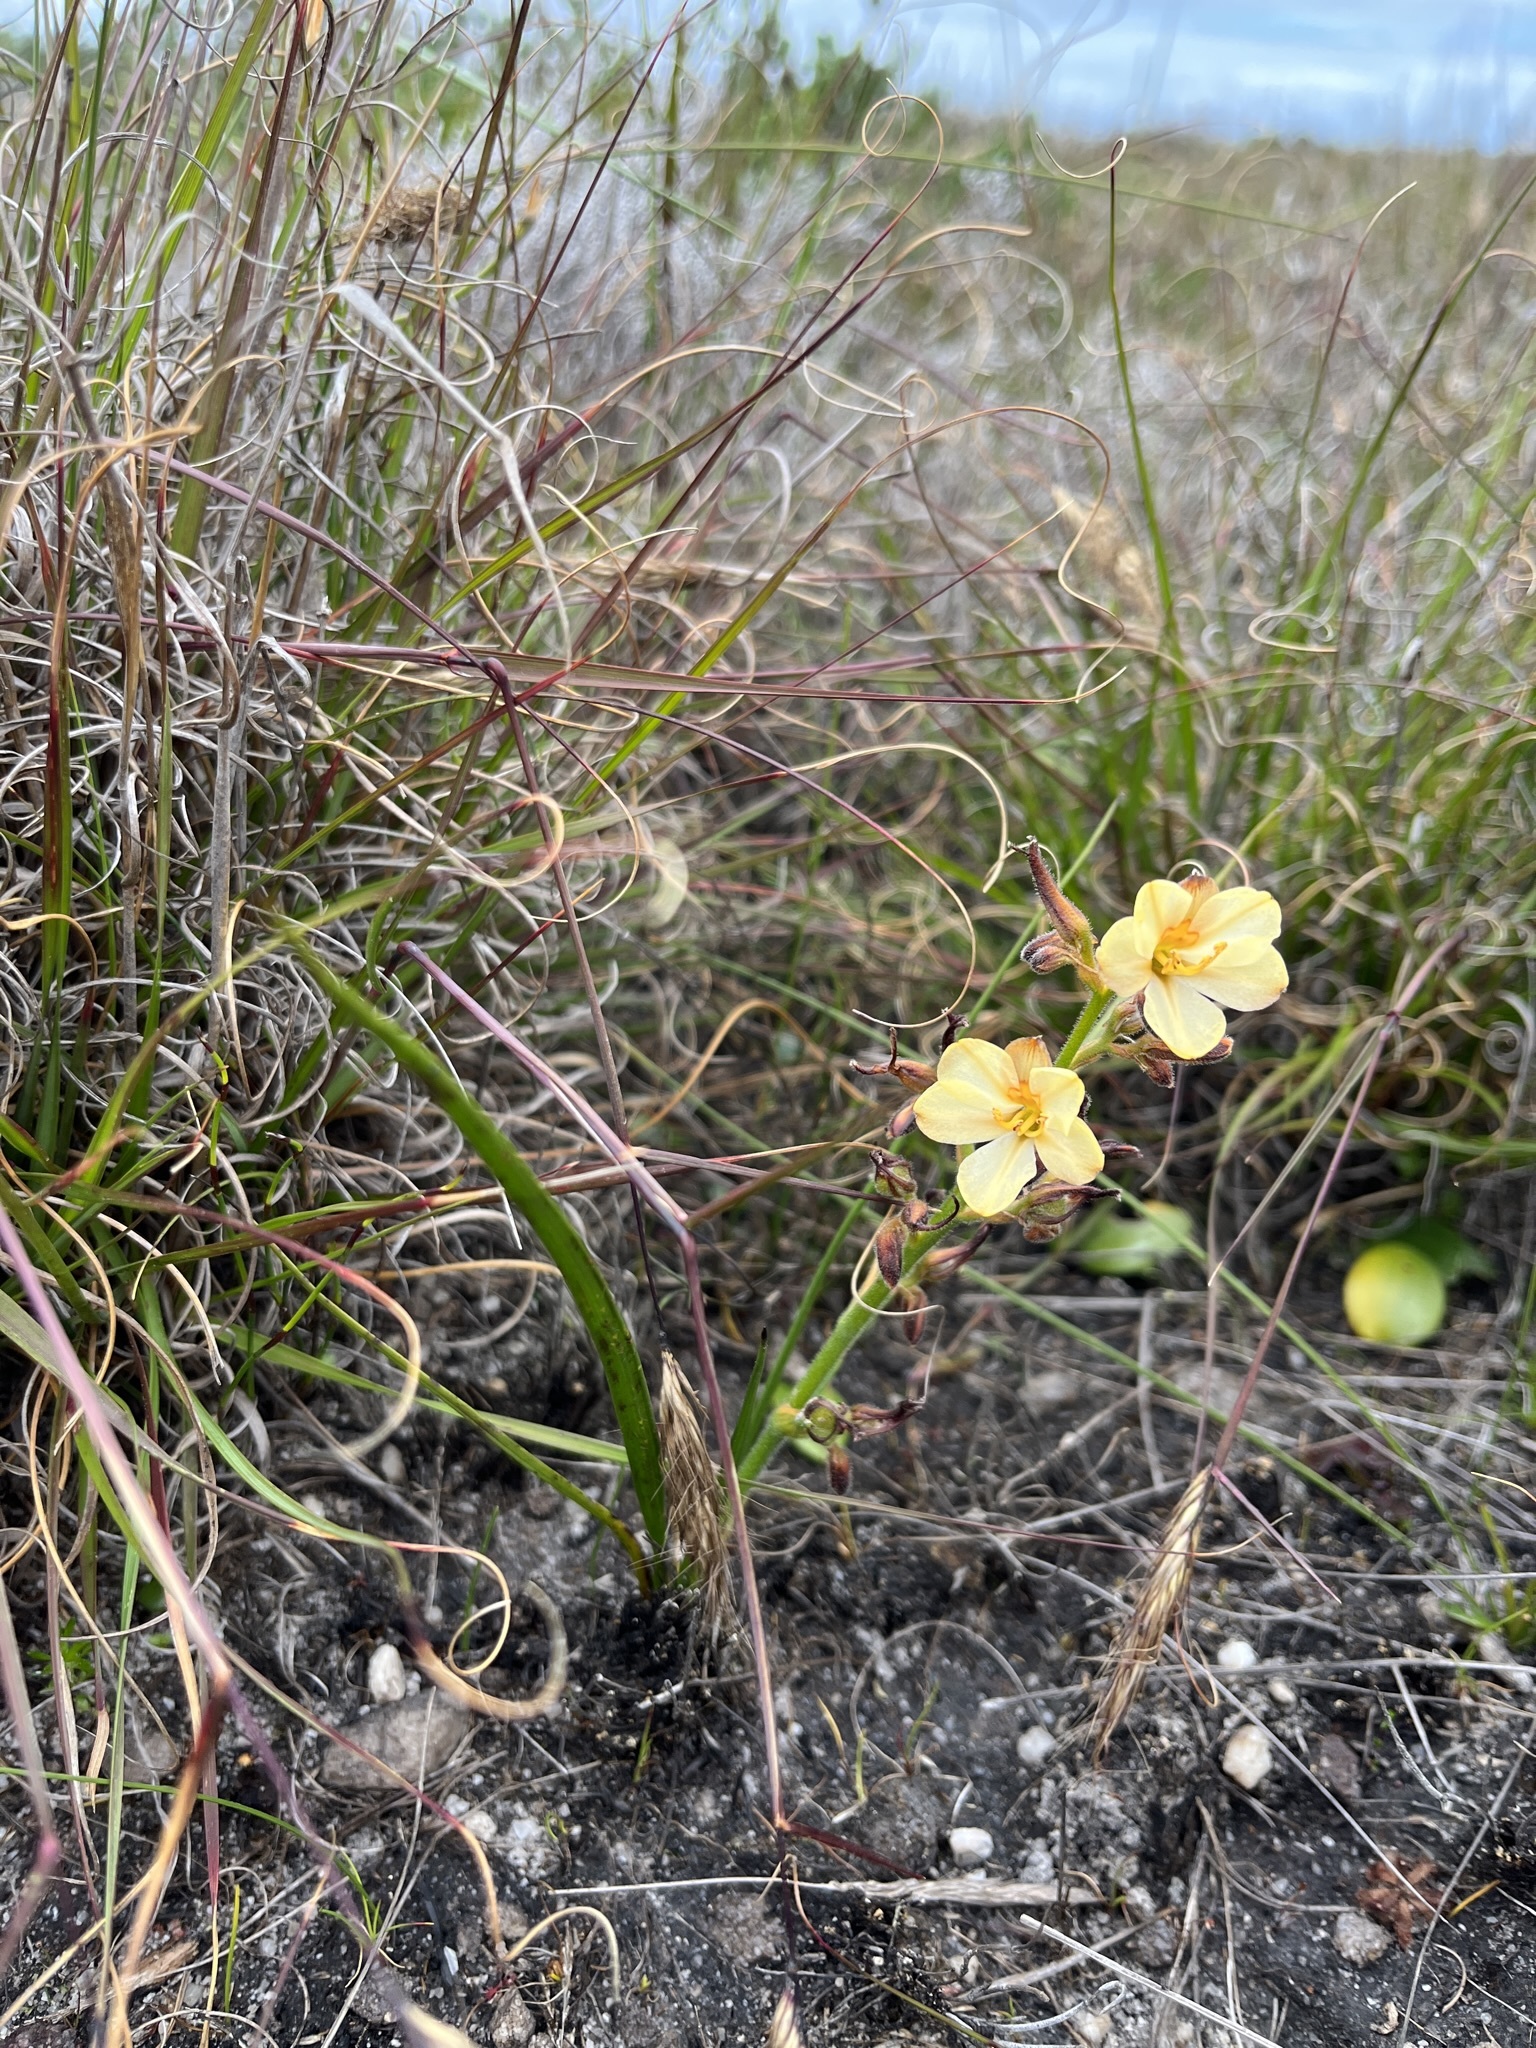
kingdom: Plantae
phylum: Tracheophyta
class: Liliopsida
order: Commelinales
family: Haemodoraceae
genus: Wachendorfia
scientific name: Wachendorfia paniculata
